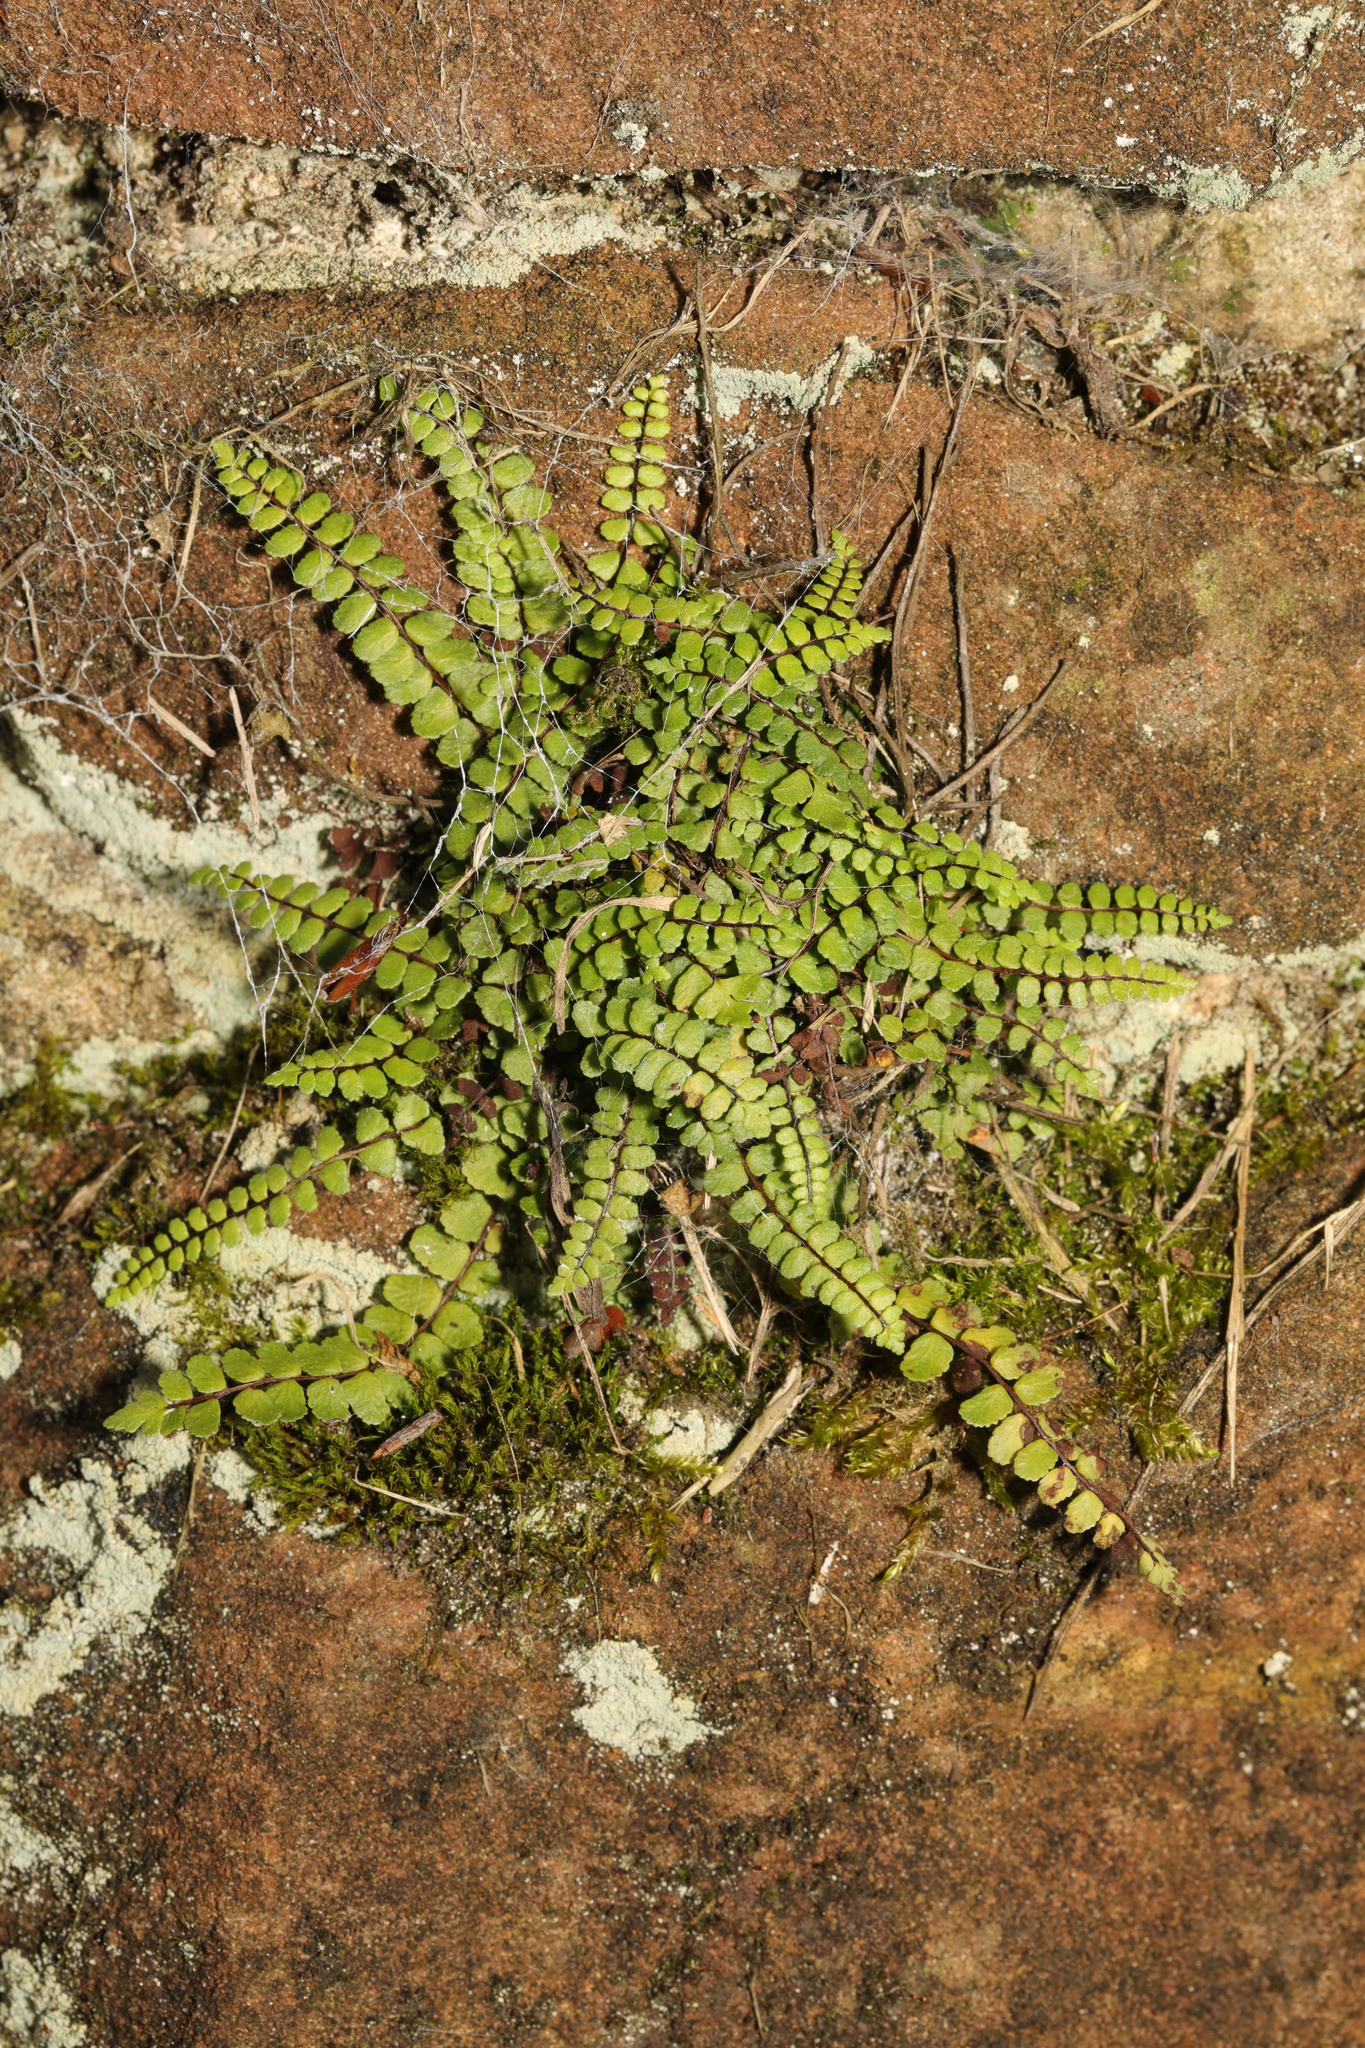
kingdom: Plantae
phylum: Tracheophyta
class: Polypodiopsida
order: Polypodiales
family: Aspleniaceae
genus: Asplenium
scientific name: Asplenium quadrivalens
